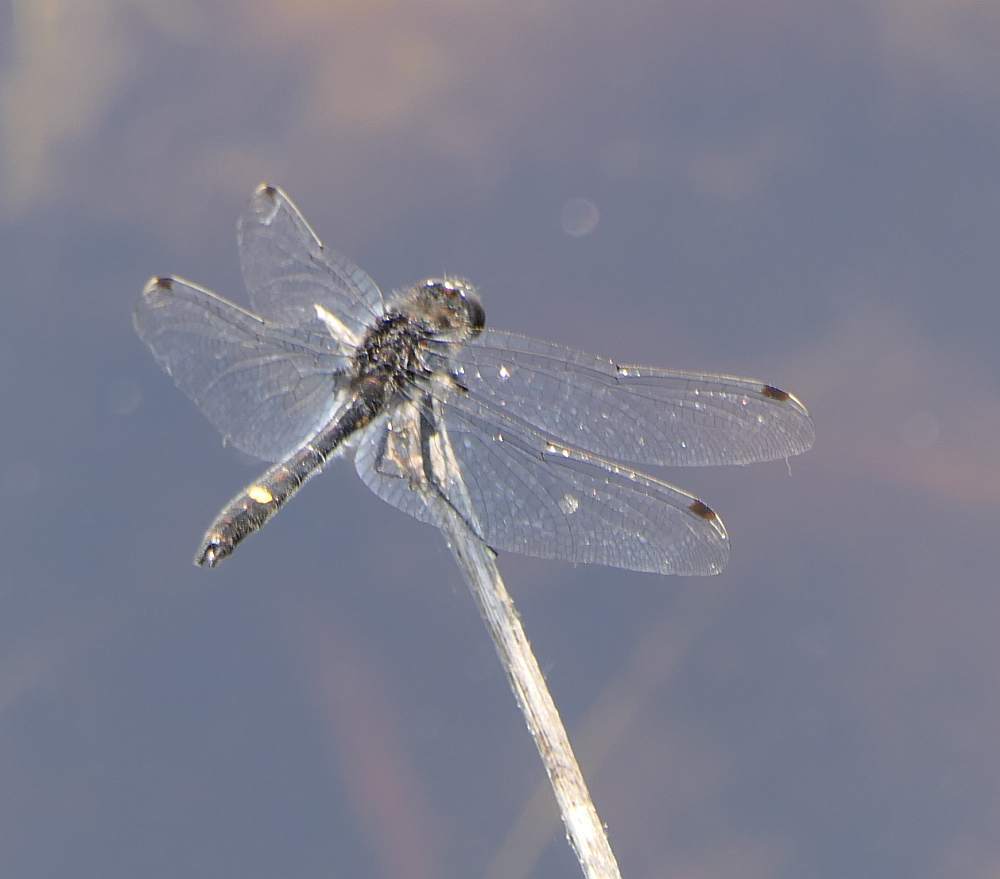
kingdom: Animalia
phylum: Arthropoda
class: Insecta
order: Odonata
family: Libellulidae
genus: Leucorrhinia
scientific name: Leucorrhinia intacta
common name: Dot-tailed whiteface
